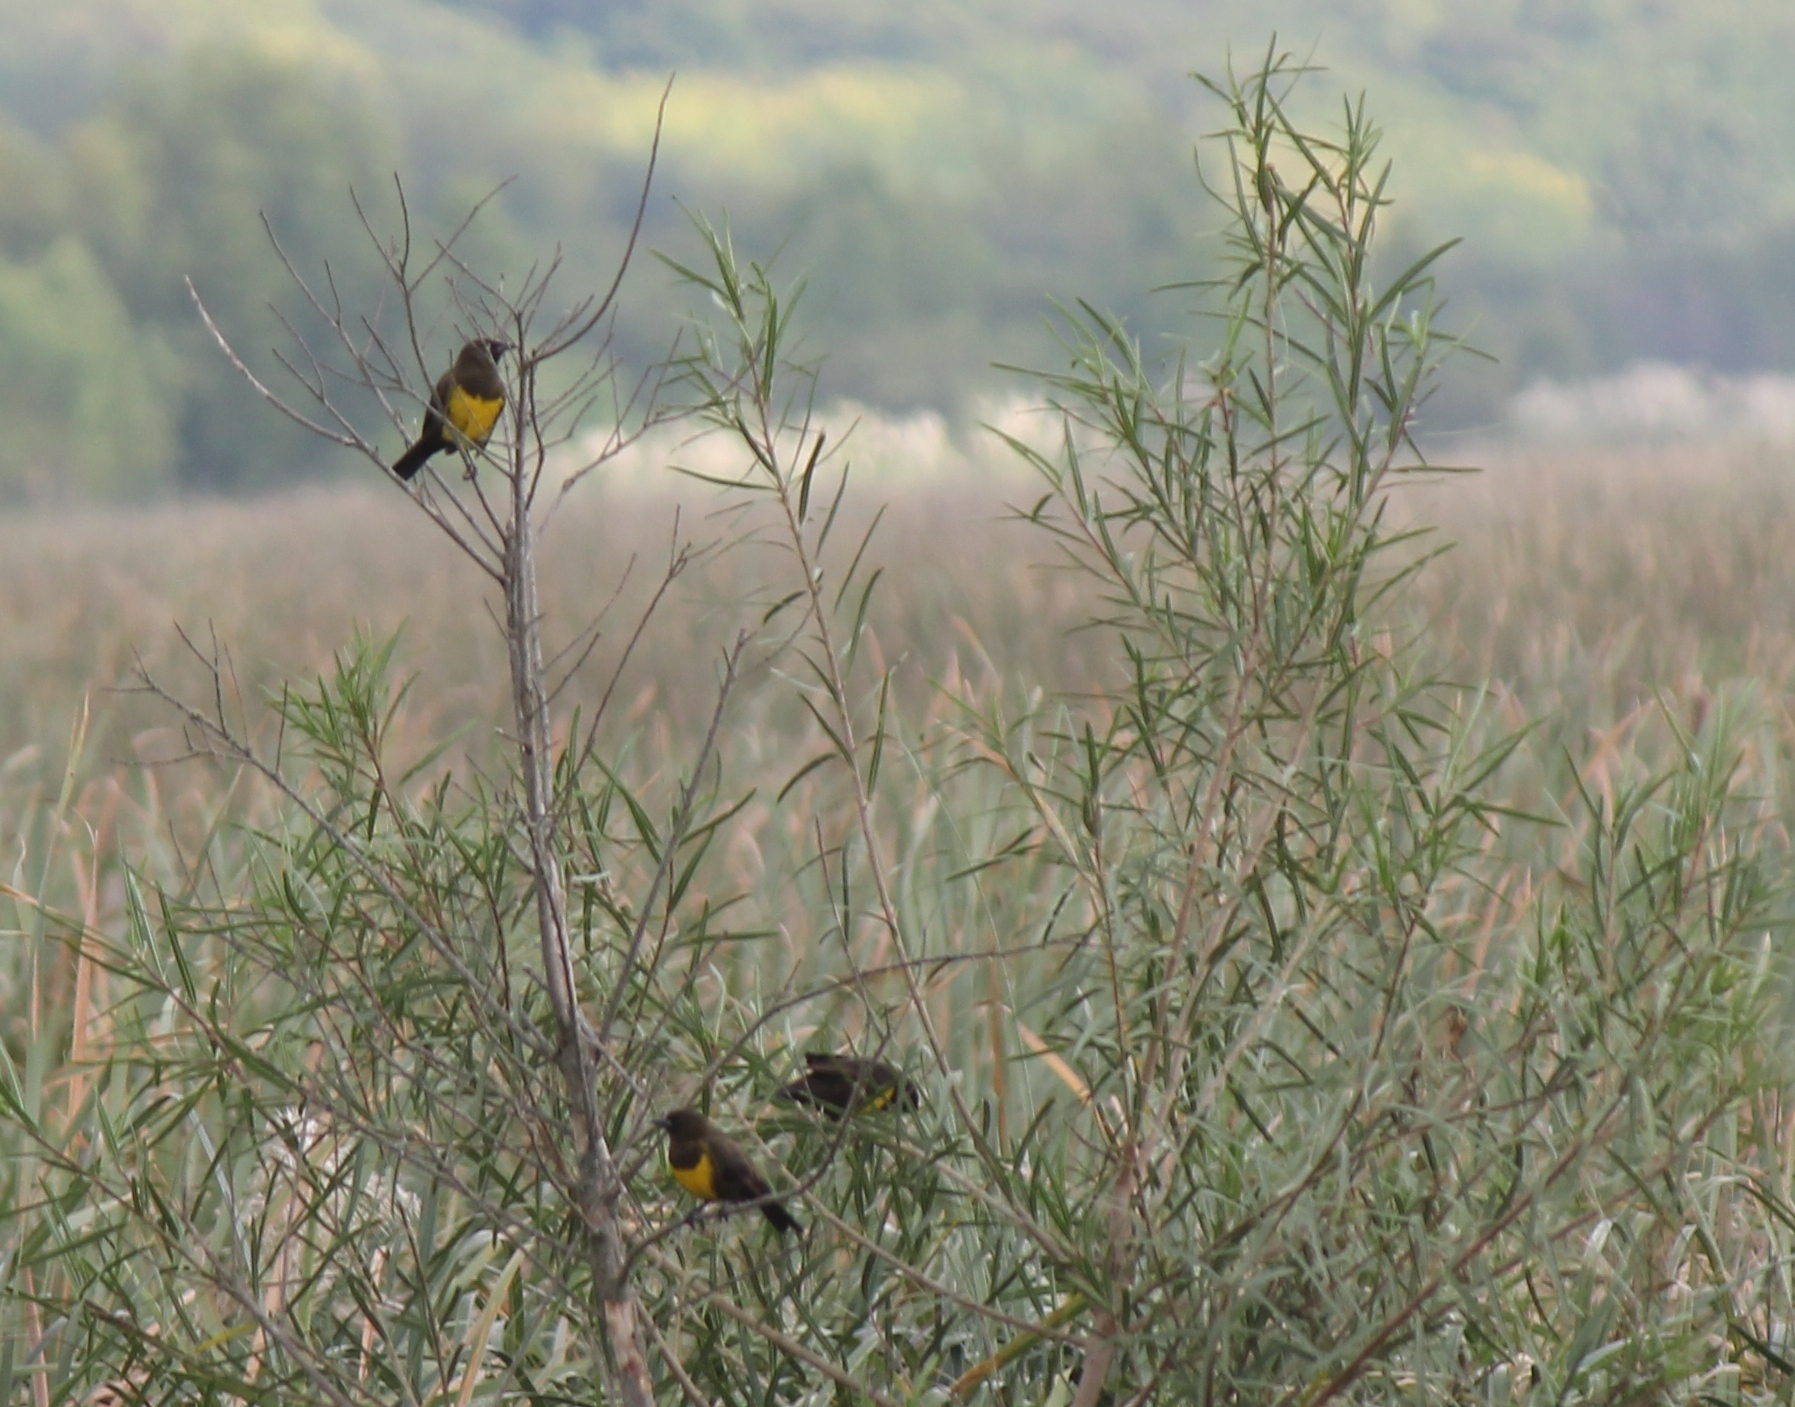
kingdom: Animalia
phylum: Chordata
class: Aves
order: Passeriformes
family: Icteridae
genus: Pseudoleistes
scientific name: Pseudoleistes virescens
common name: Brown-and-yellow marshbird
